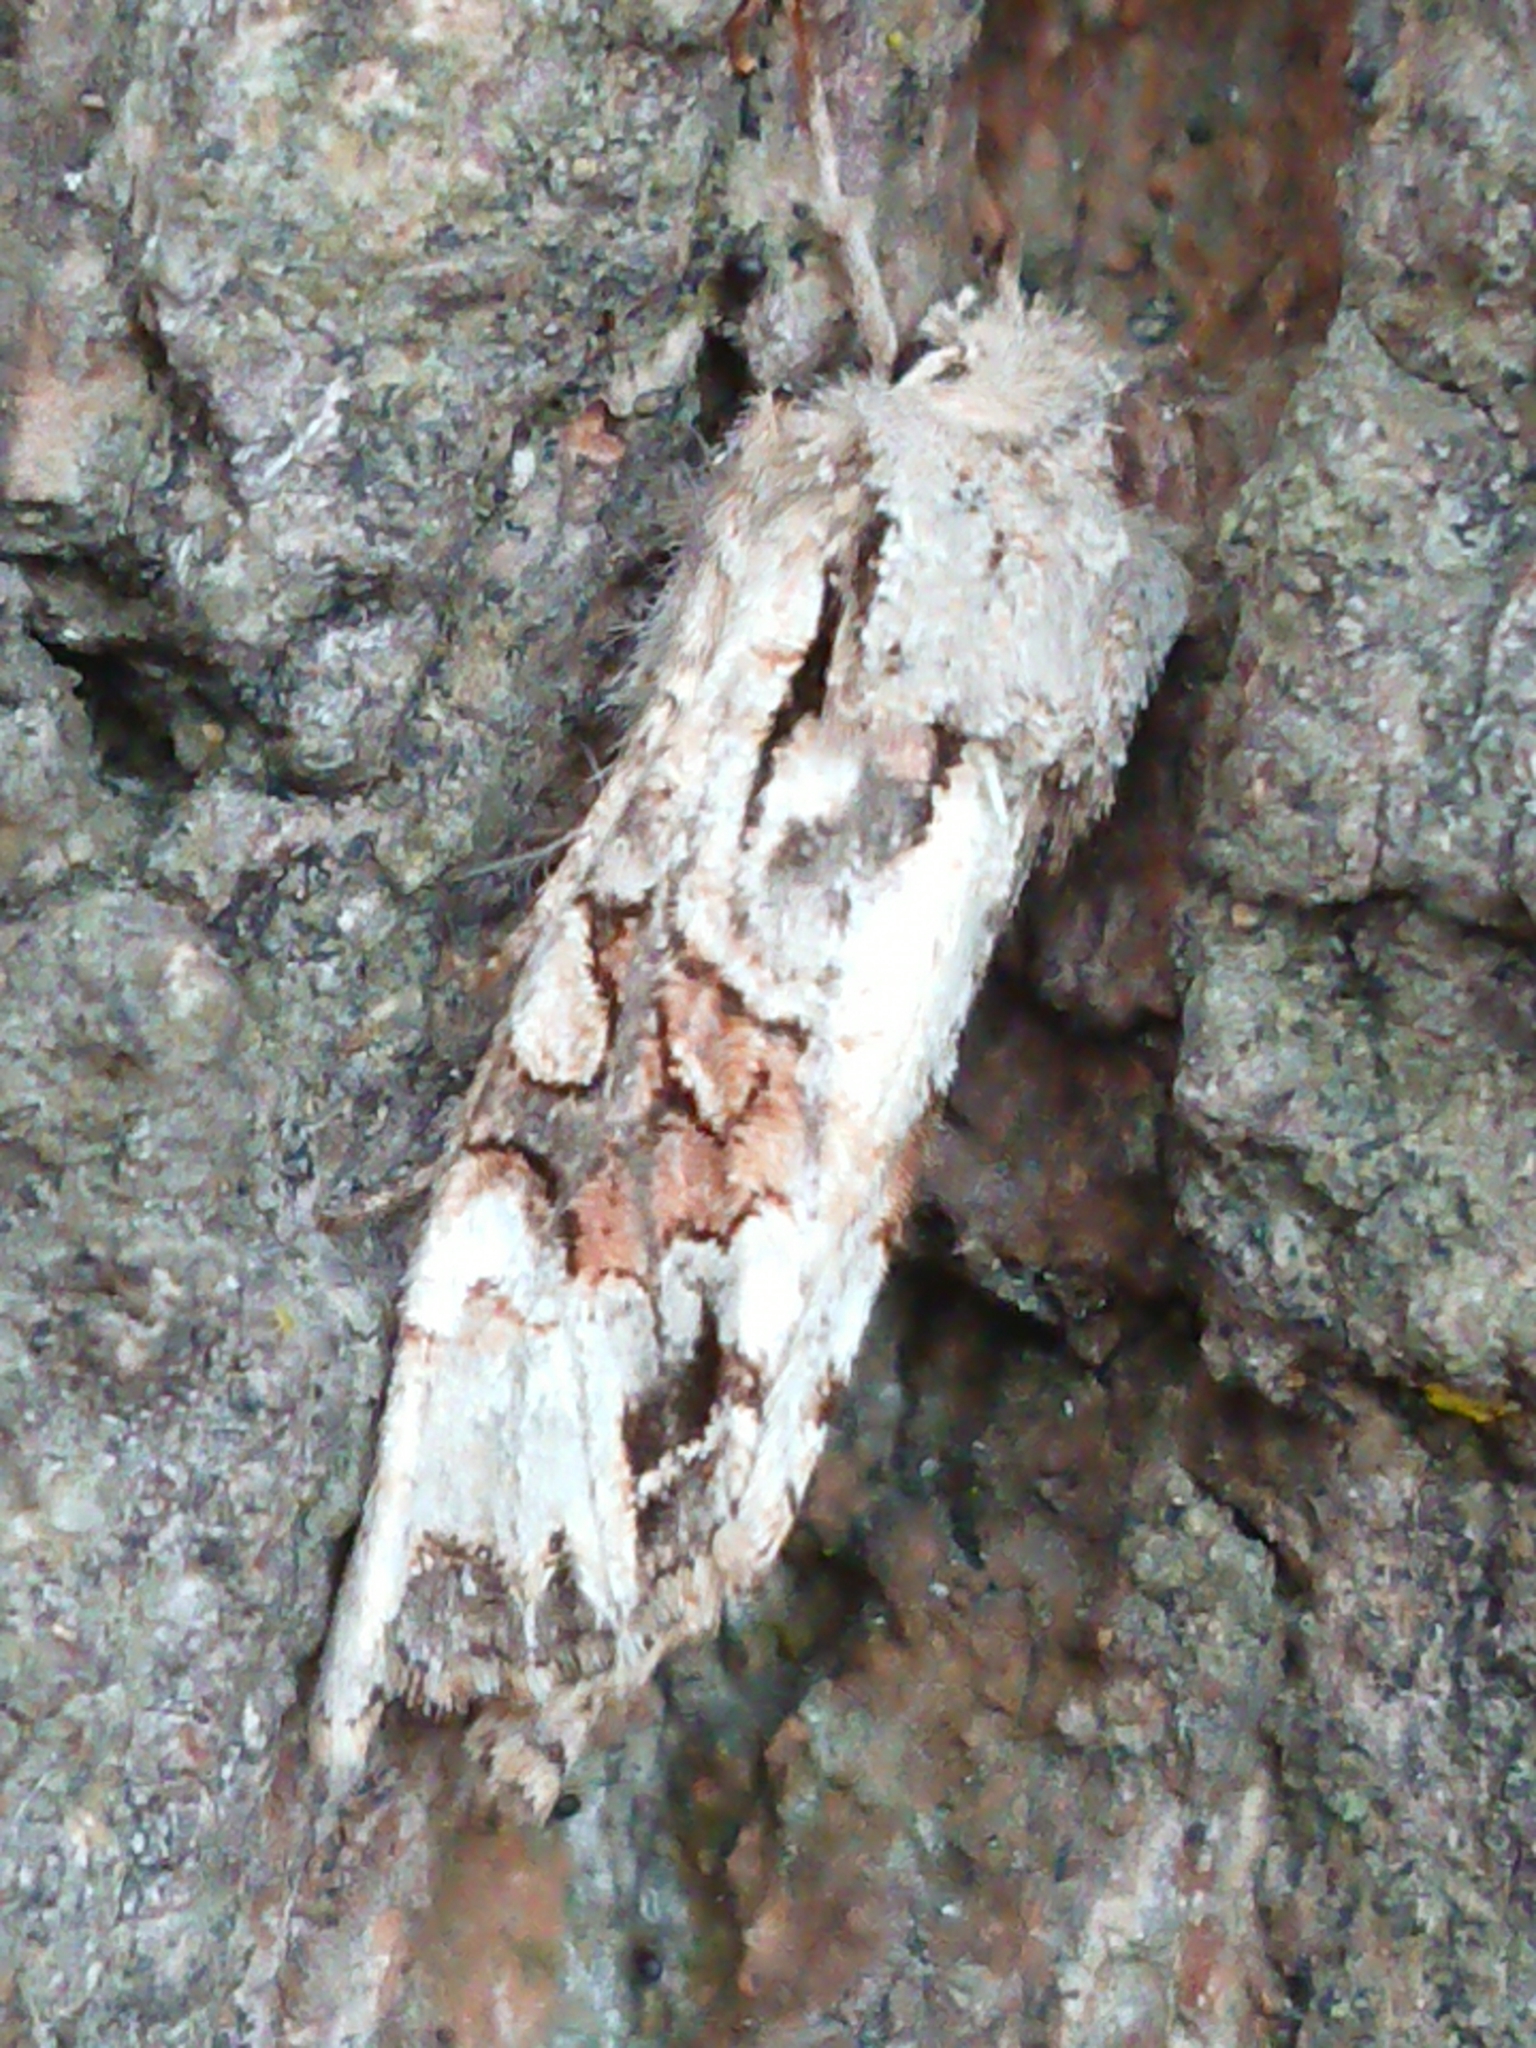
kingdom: Animalia
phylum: Arthropoda
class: Insecta
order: Lepidoptera
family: Noctuidae
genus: Ichneutica
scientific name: Ichneutica
